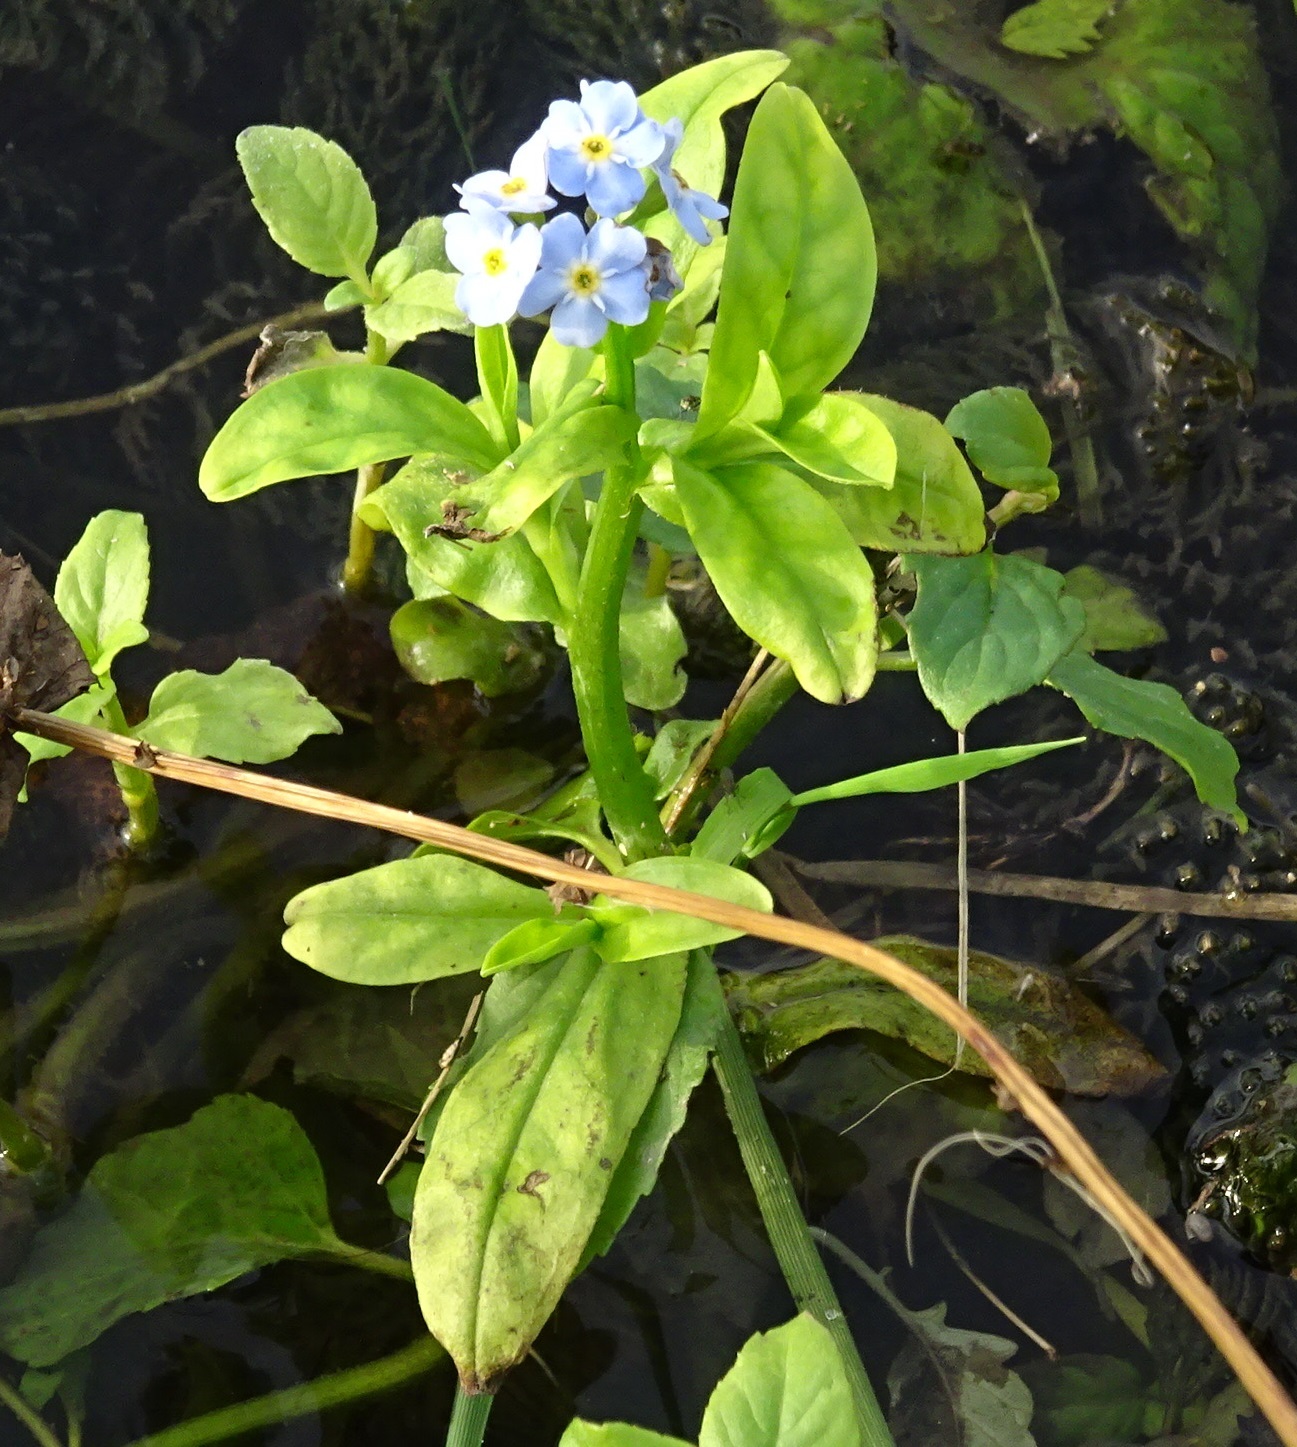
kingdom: Plantae
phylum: Tracheophyta
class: Magnoliopsida
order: Boraginales
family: Boraginaceae
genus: Myosotis
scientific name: Myosotis scorpioides
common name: Water forget-me-not
